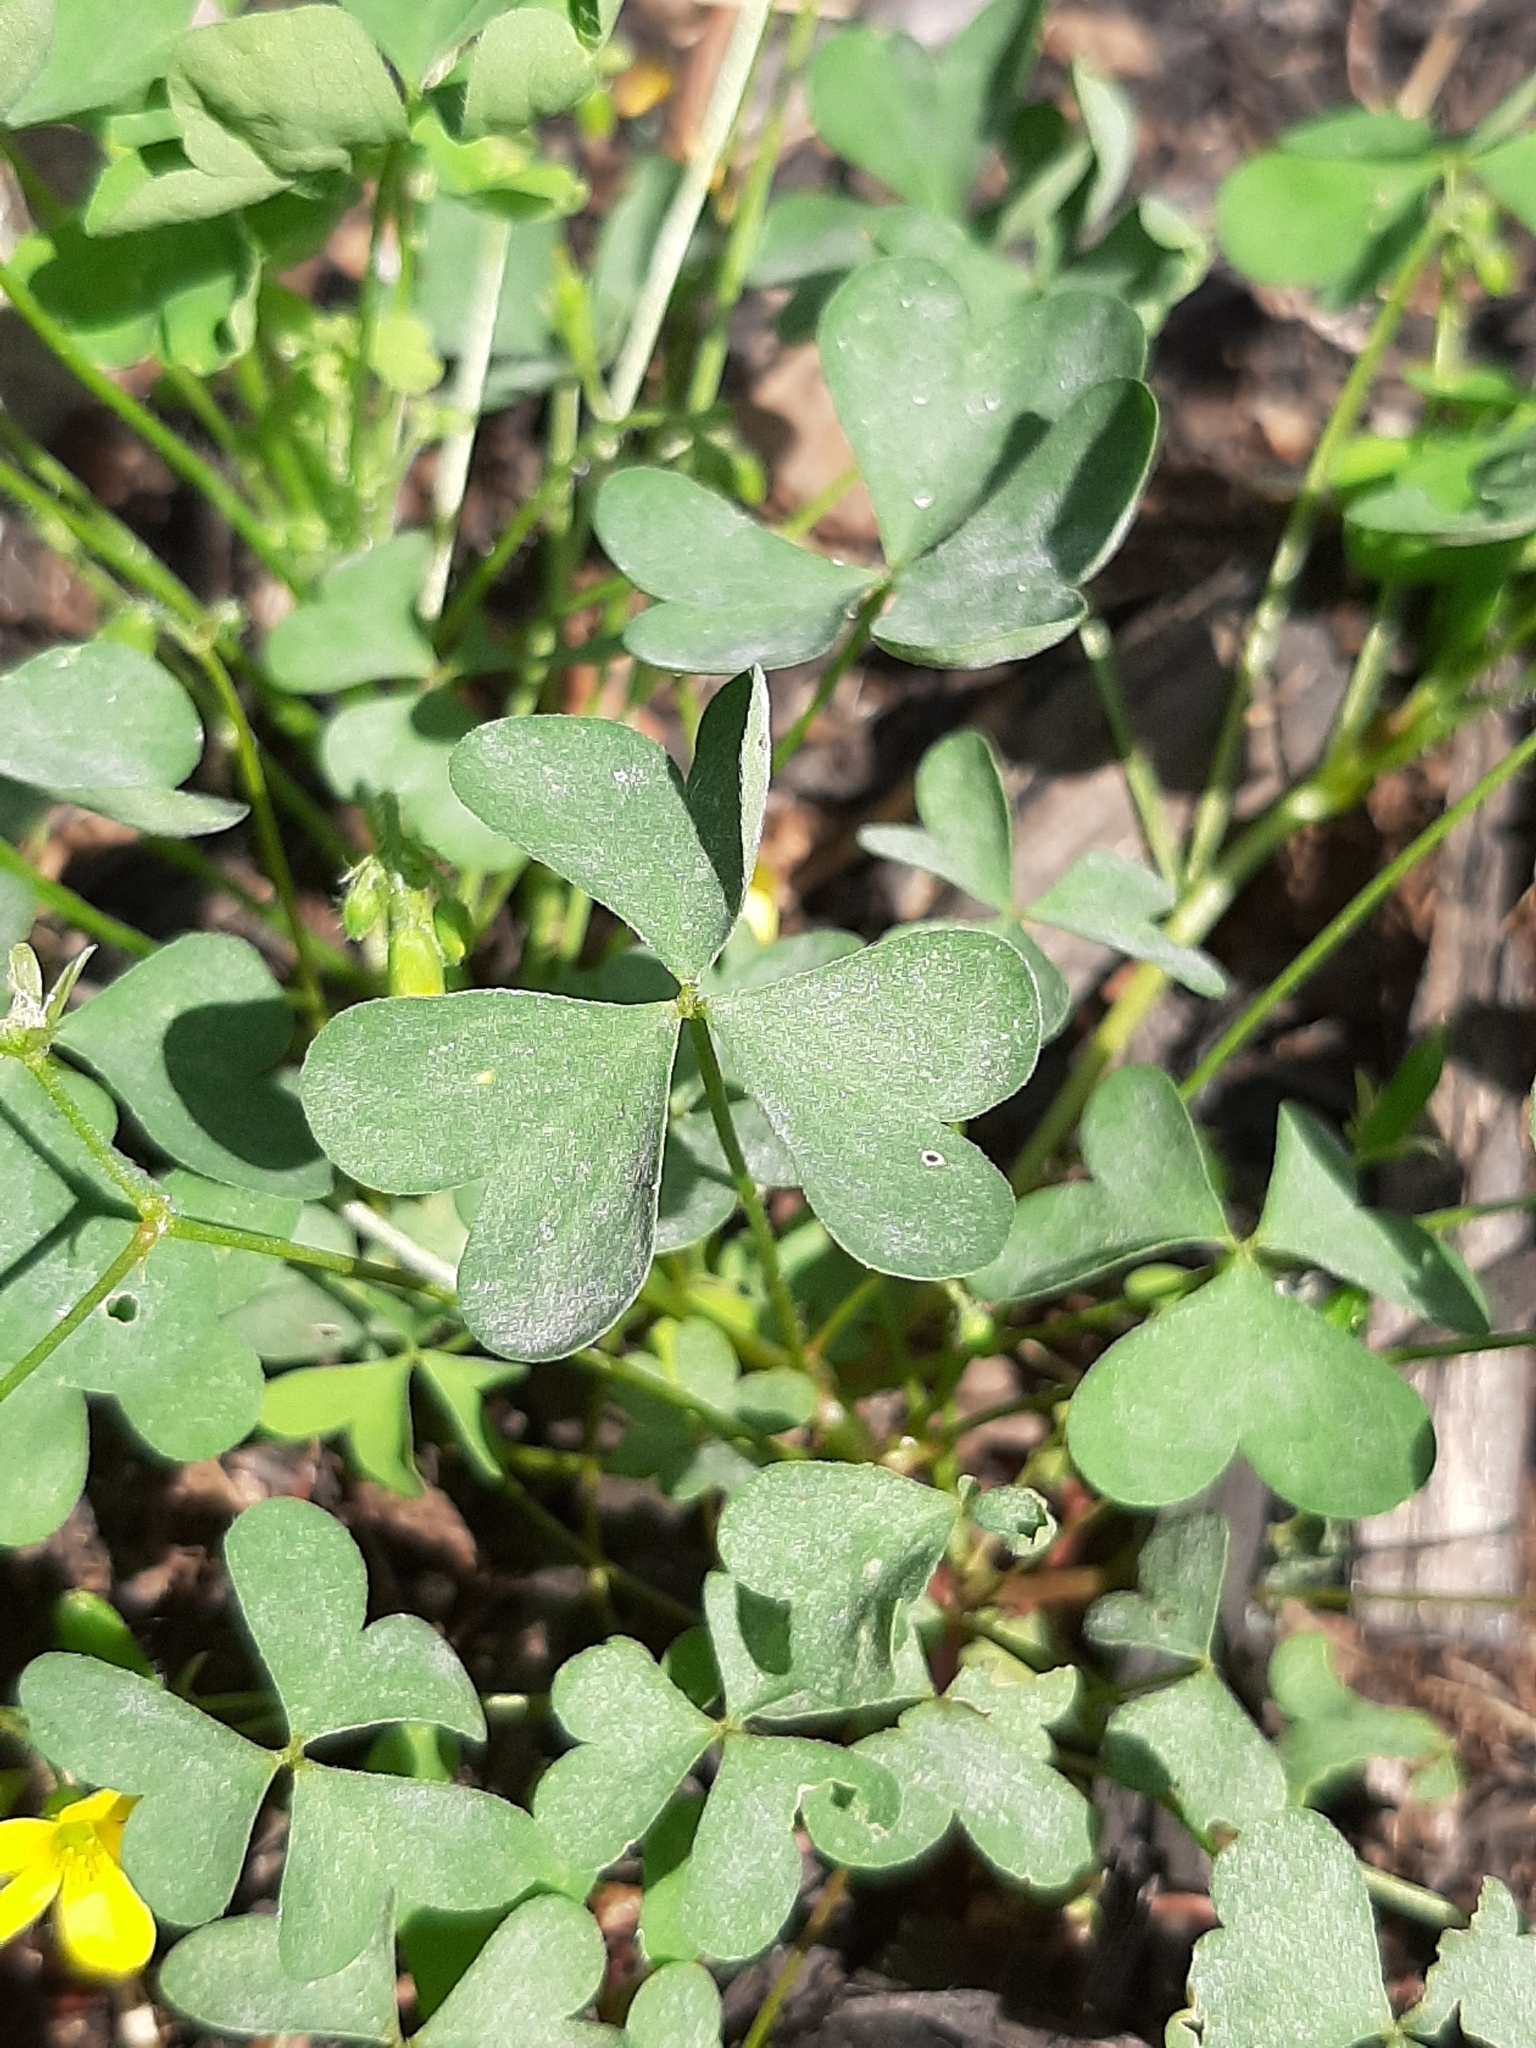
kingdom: Plantae
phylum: Tracheophyta
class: Magnoliopsida
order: Oxalidales
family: Oxalidaceae
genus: Oxalis
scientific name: Oxalis stricta
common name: Upright yellow-sorrel
